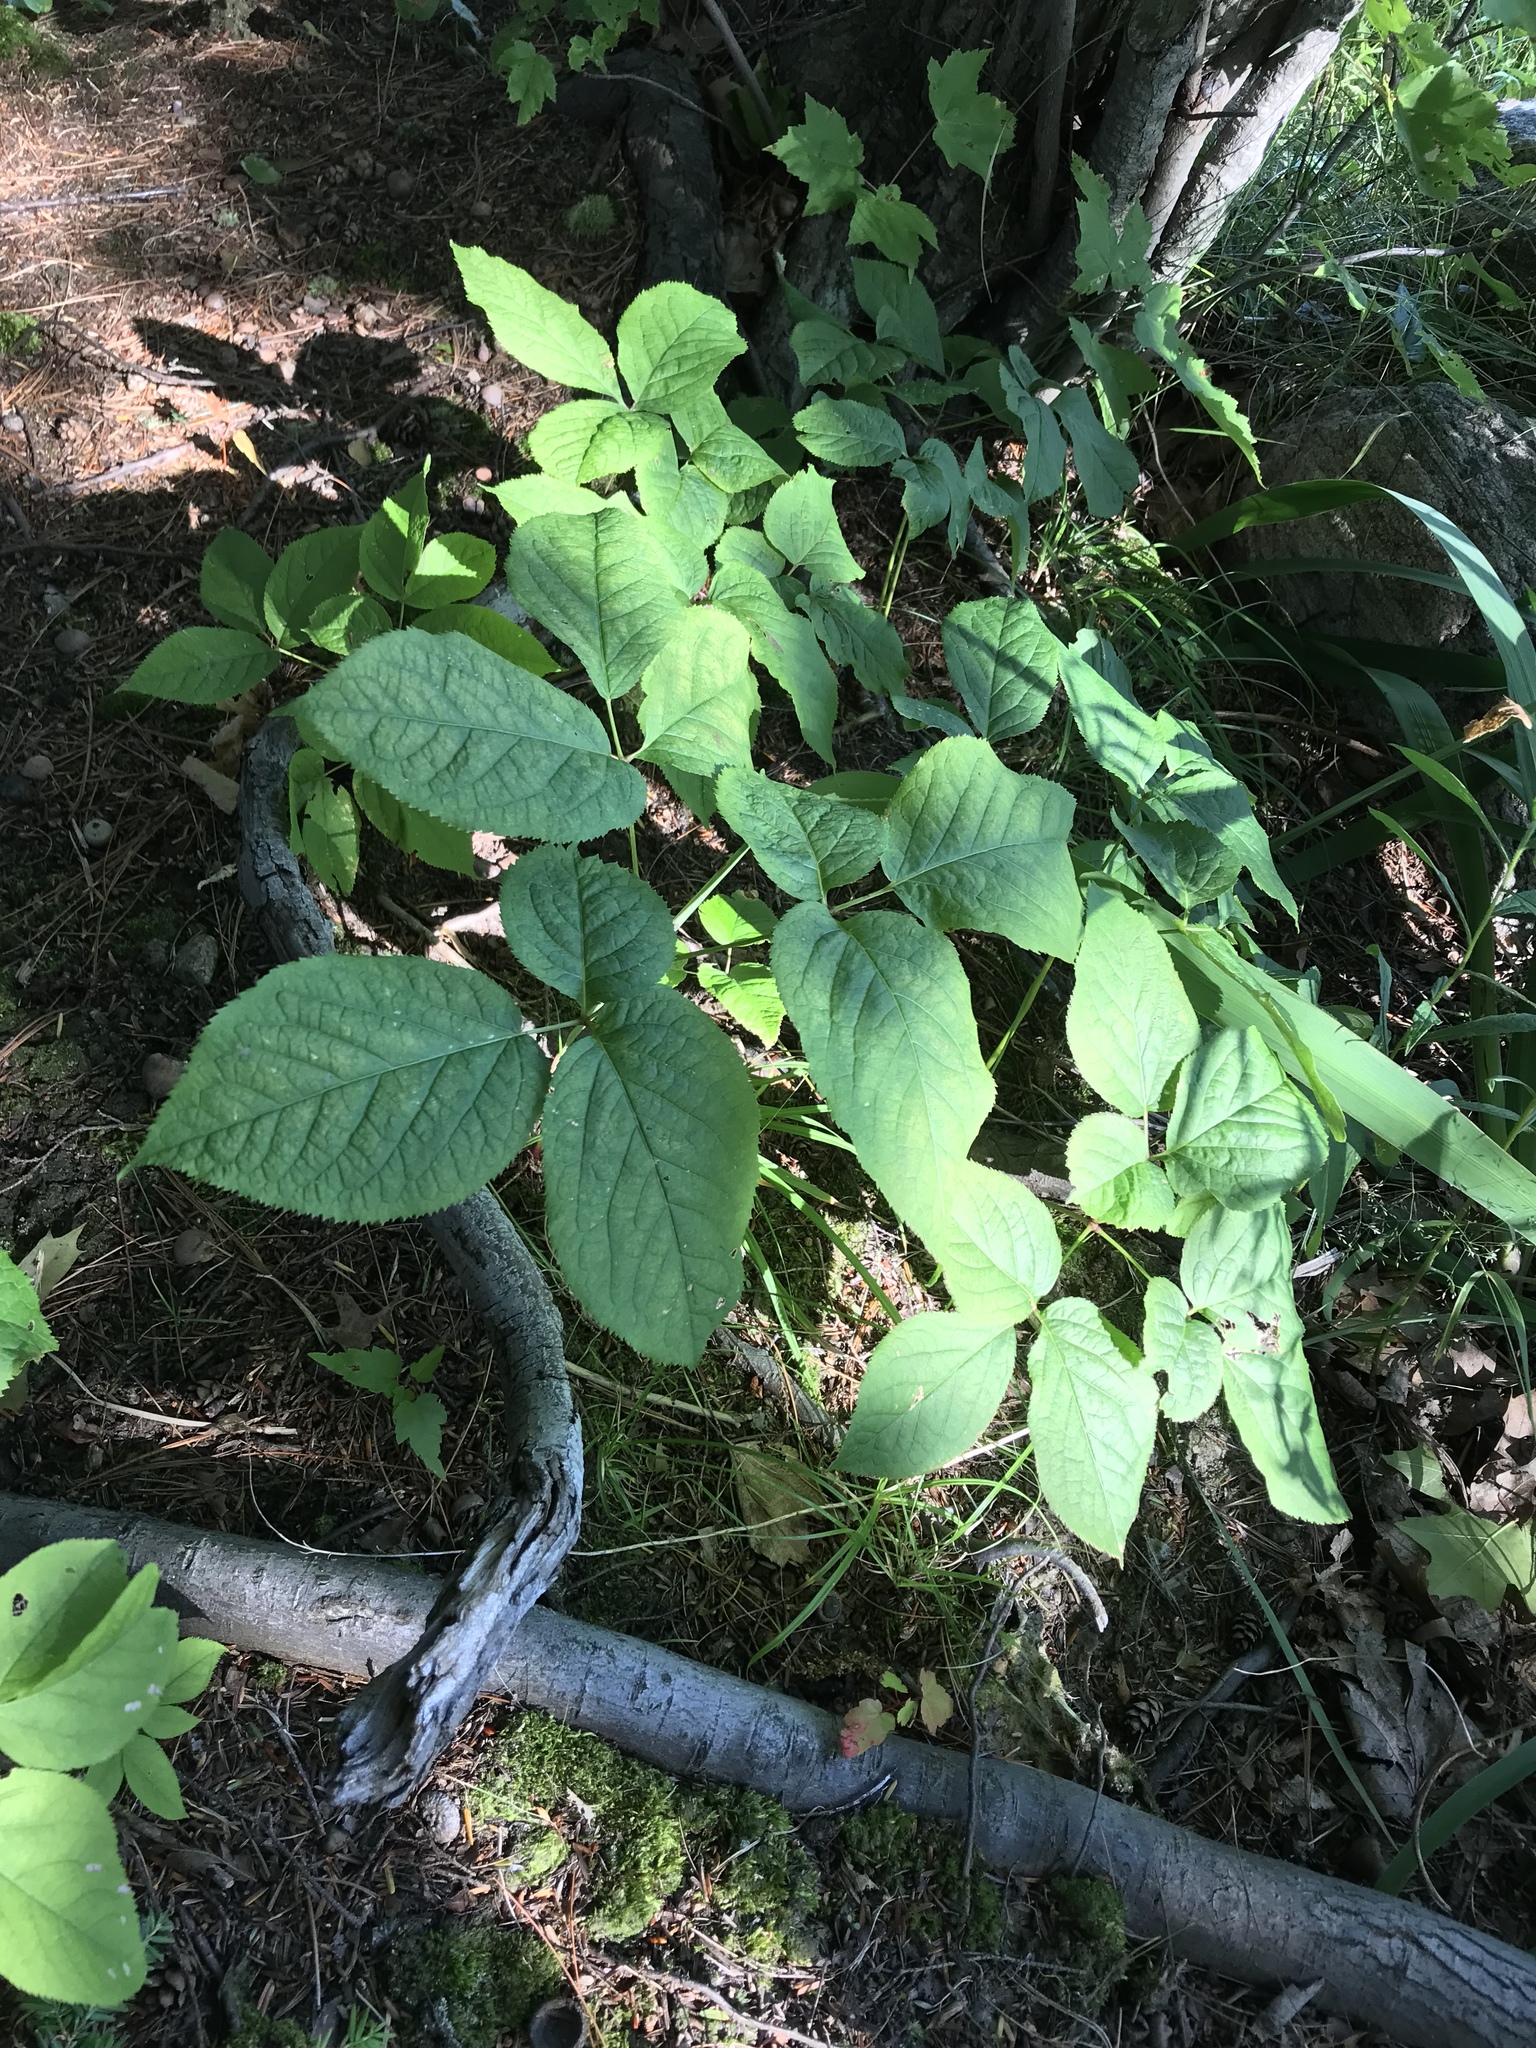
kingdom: Plantae
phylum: Tracheophyta
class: Magnoliopsida
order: Apiales
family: Araliaceae
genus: Aralia
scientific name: Aralia nudicaulis
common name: Wild sarsaparilla
